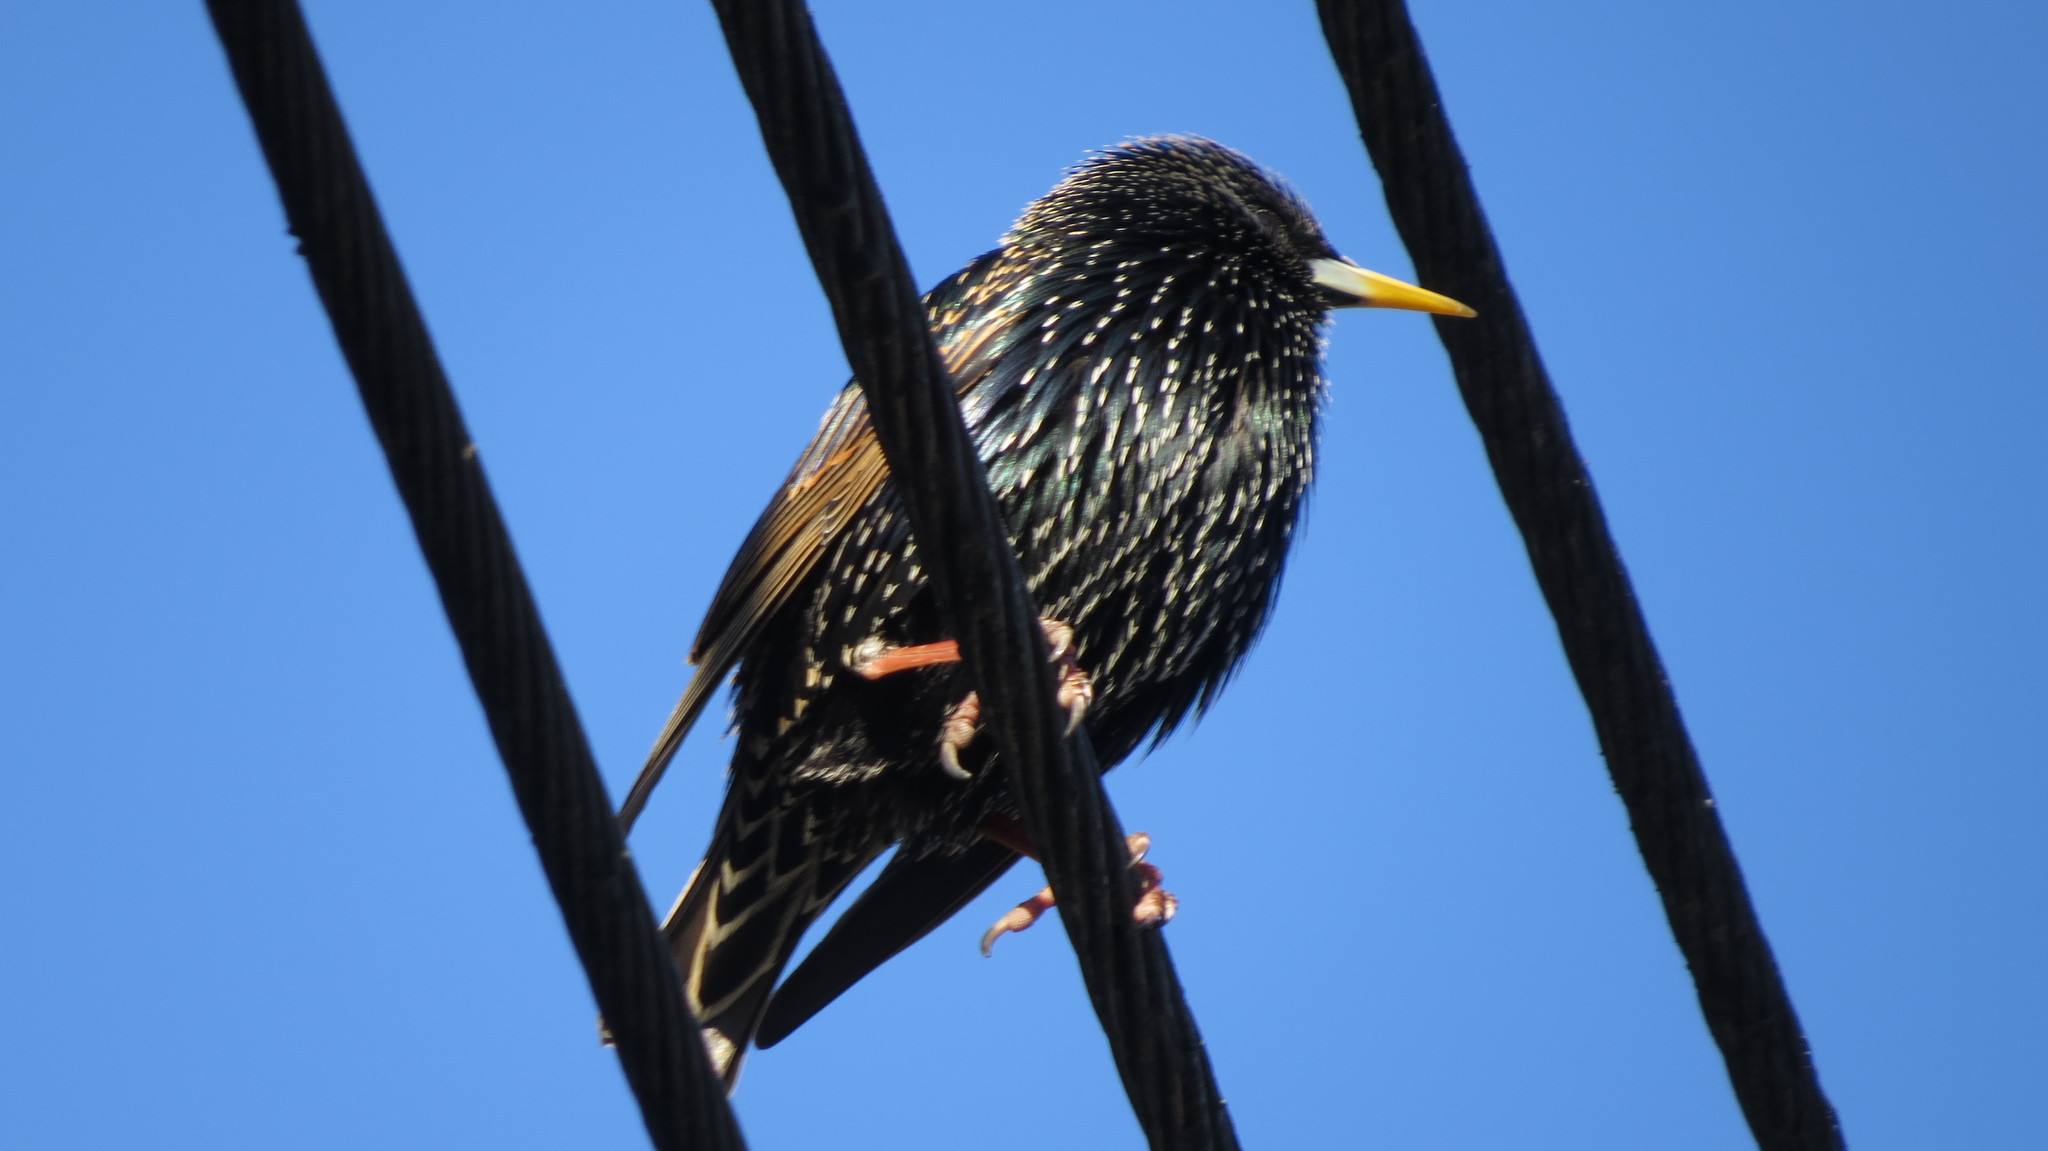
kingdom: Animalia
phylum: Chordata
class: Aves
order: Passeriformes
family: Sturnidae
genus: Sturnus
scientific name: Sturnus vulgaris
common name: Common starling
